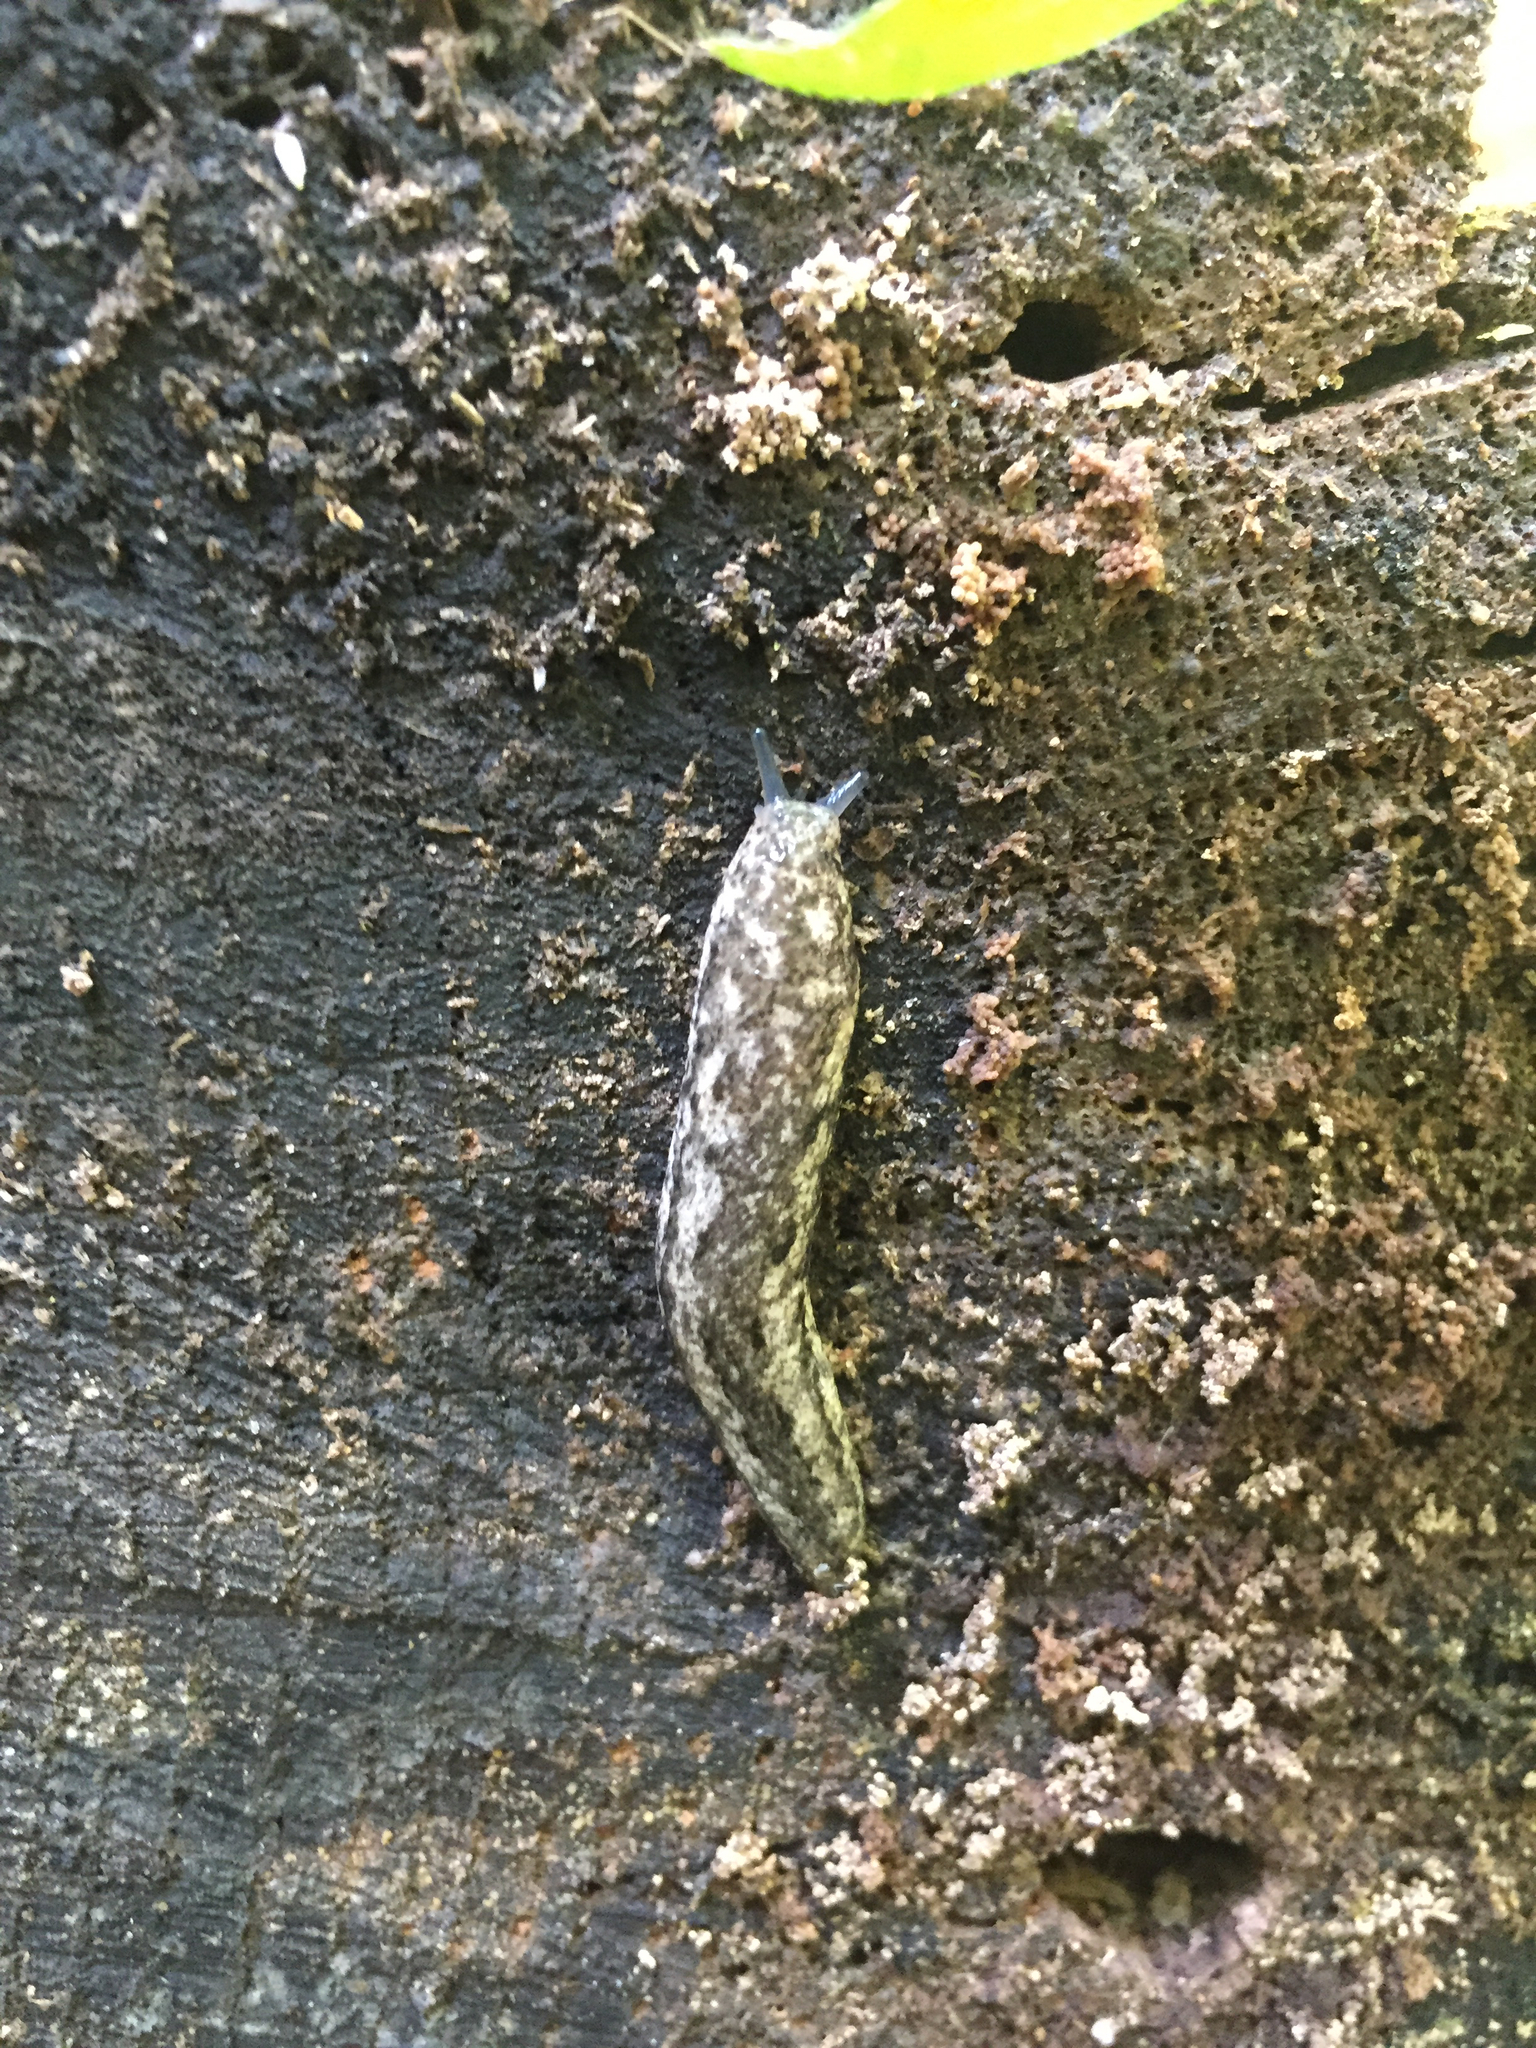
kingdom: Animalia
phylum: Mollusca
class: Gastropoda
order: Stylommatophora
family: Philomycidae
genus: Philomycus
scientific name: Philomycus carolinianus
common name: Carolina mantleslug
